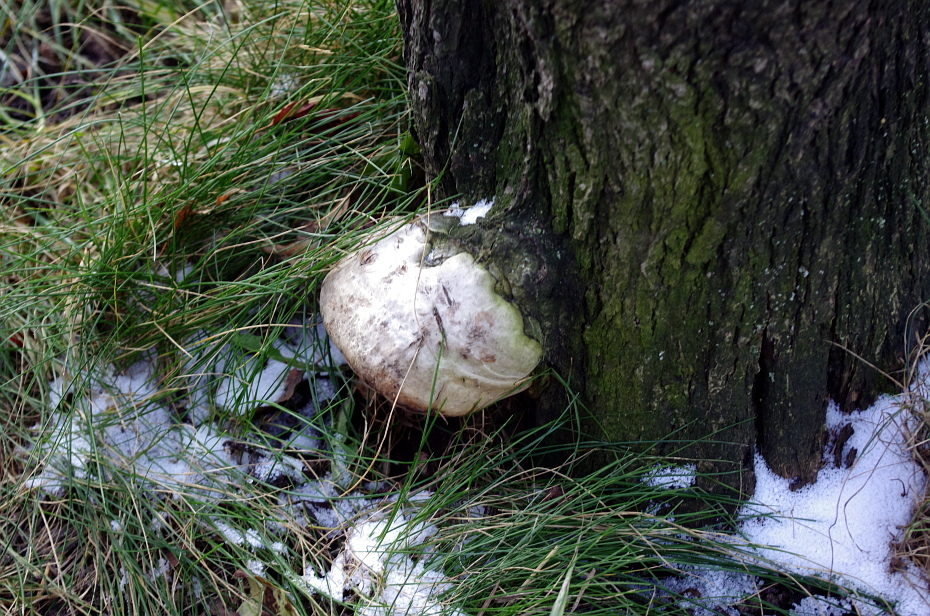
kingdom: Fungi
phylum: Basidiomycota
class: Agaricomycetes
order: Polyporales
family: Polyporaceae
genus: Fomes
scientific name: Fomes fomentarius
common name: Hoof fungus
